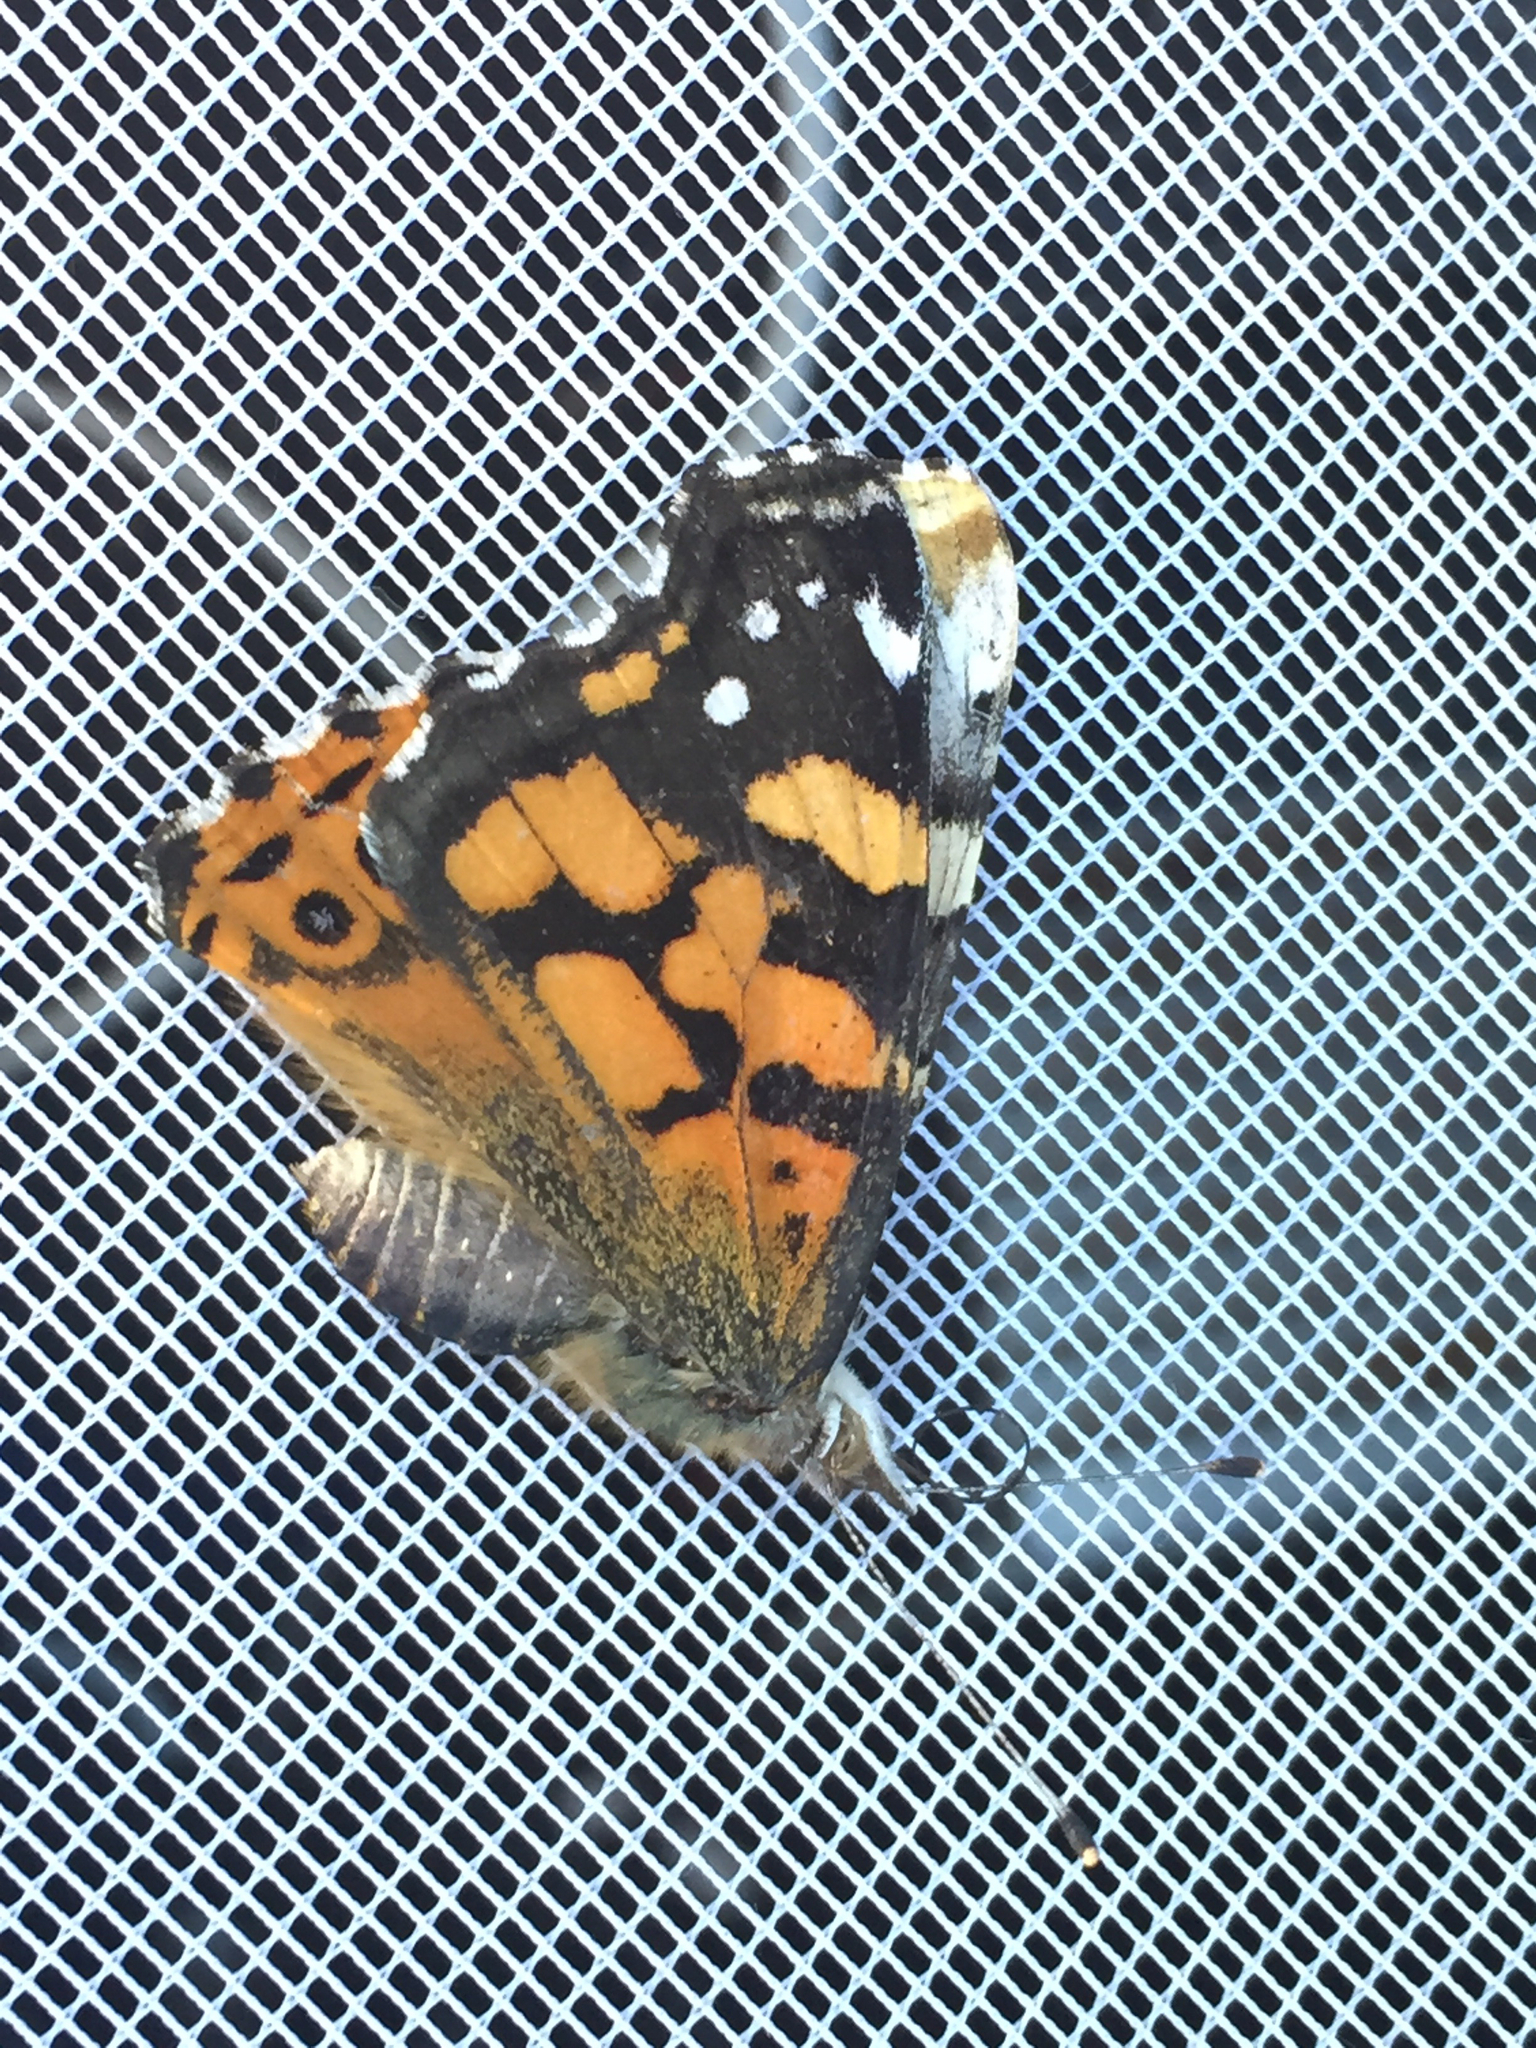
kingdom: Animalia
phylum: Arthropoda
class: Insecta
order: Lepidoptera
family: Nymphalidae
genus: Vanessa
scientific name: Vanessa annabella
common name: West coast lady
